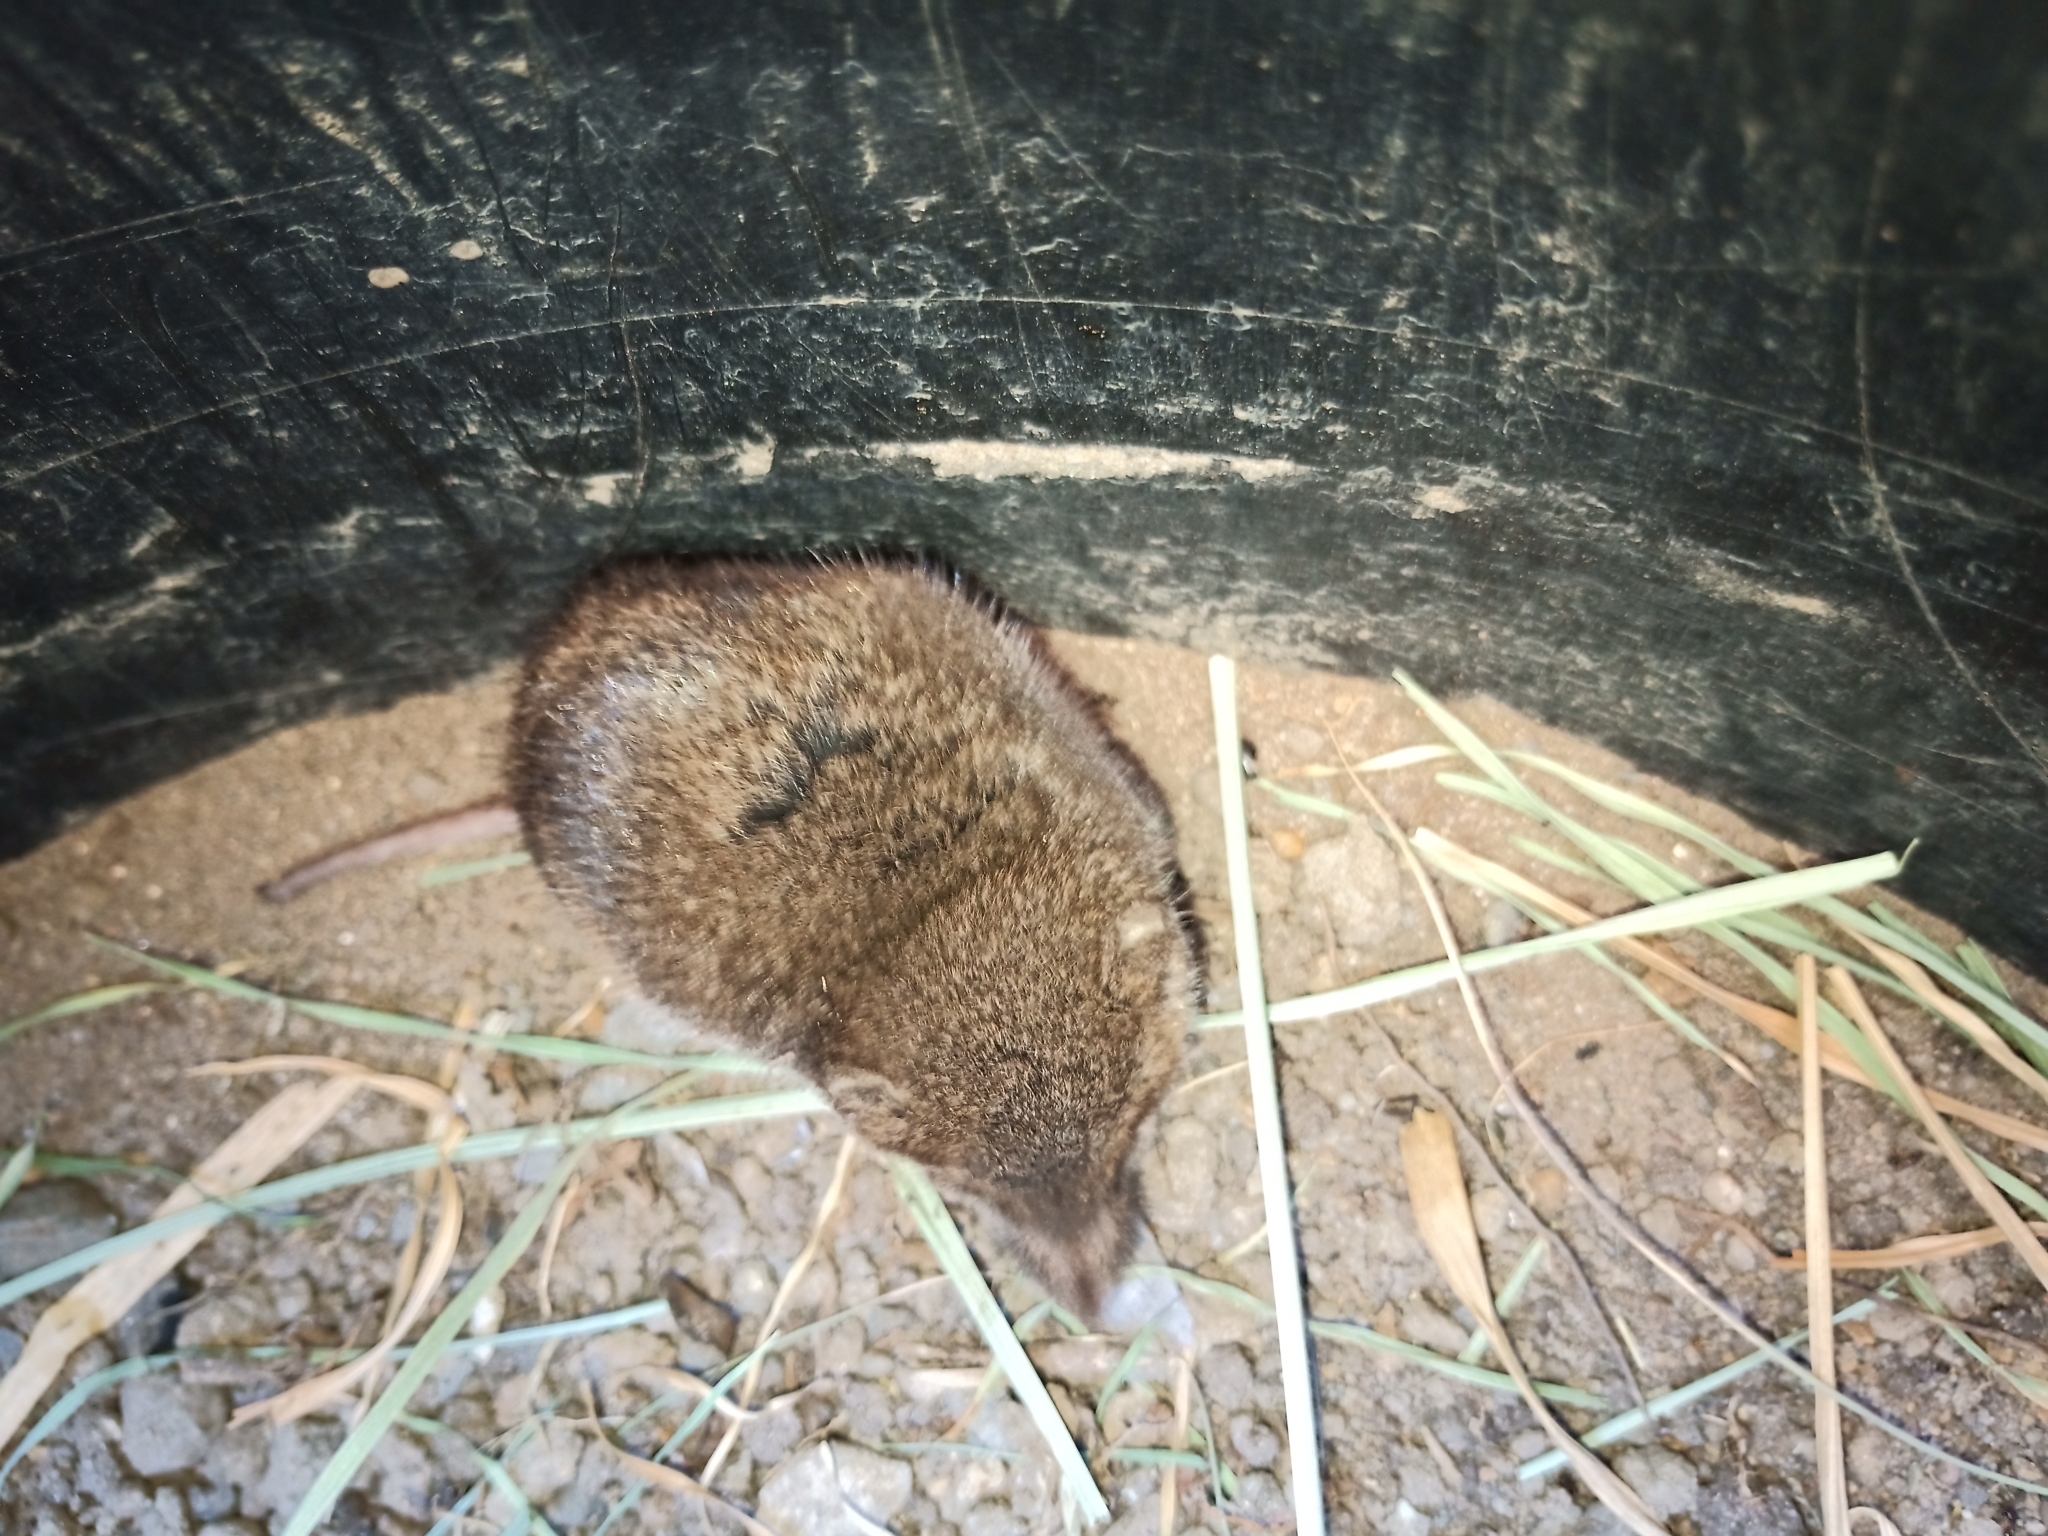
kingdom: Animalia
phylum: Chordata
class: Mammalia
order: Soricomorpha
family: Soricidae
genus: Myosorex
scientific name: Myosorex varius
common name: Forest shrew
